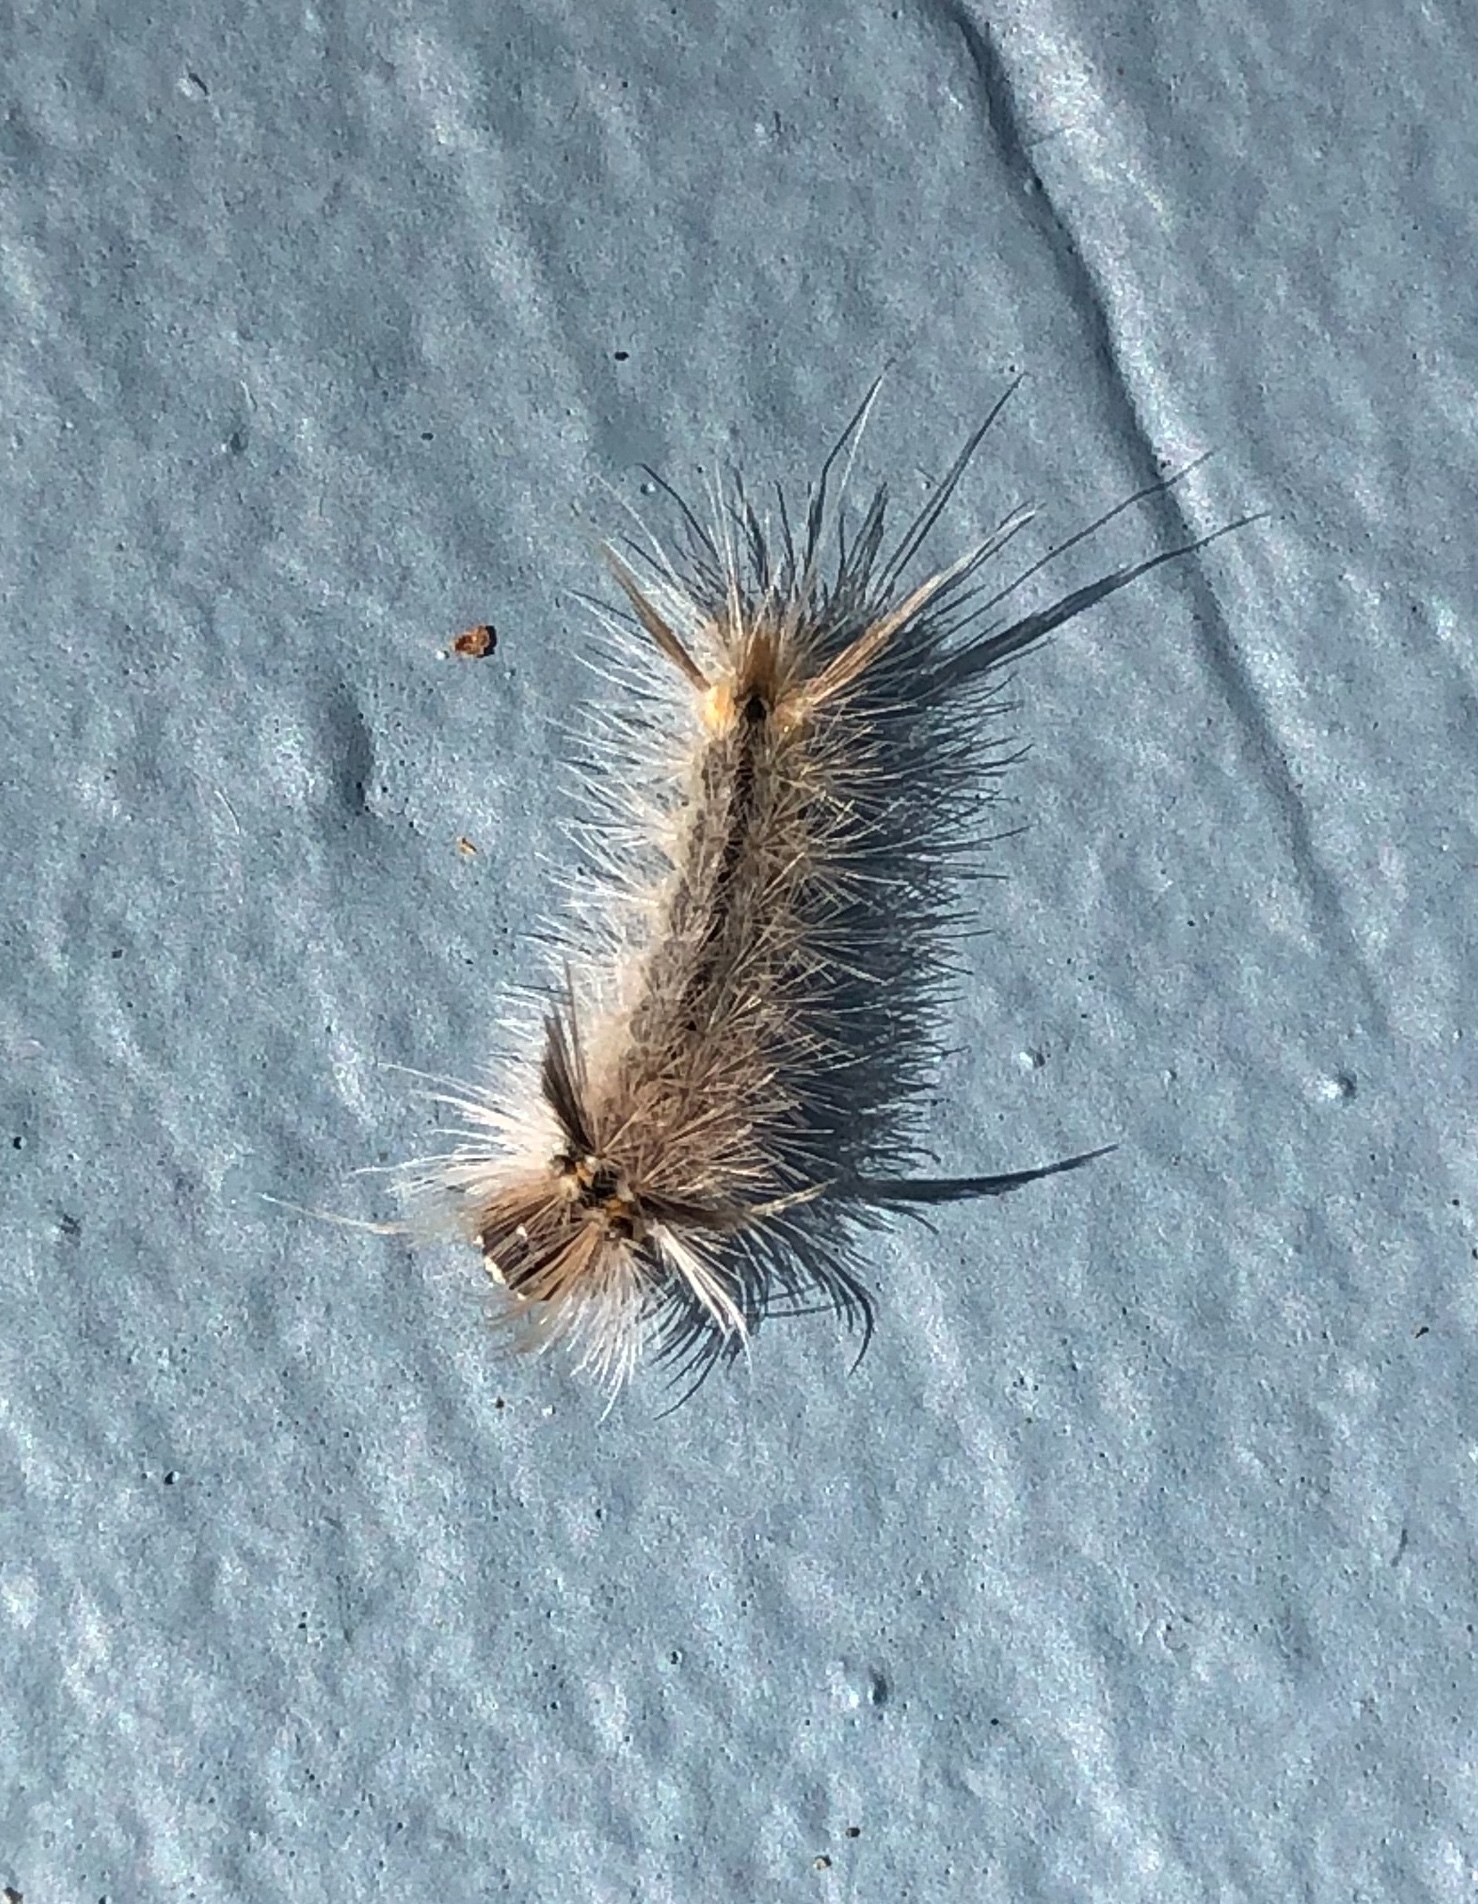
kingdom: Animalia
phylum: Arthropoda
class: Insecta
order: Lepidoptera
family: Erebidae
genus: Halysidota
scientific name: Halysidota tessellaris
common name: Banded tussock moth
